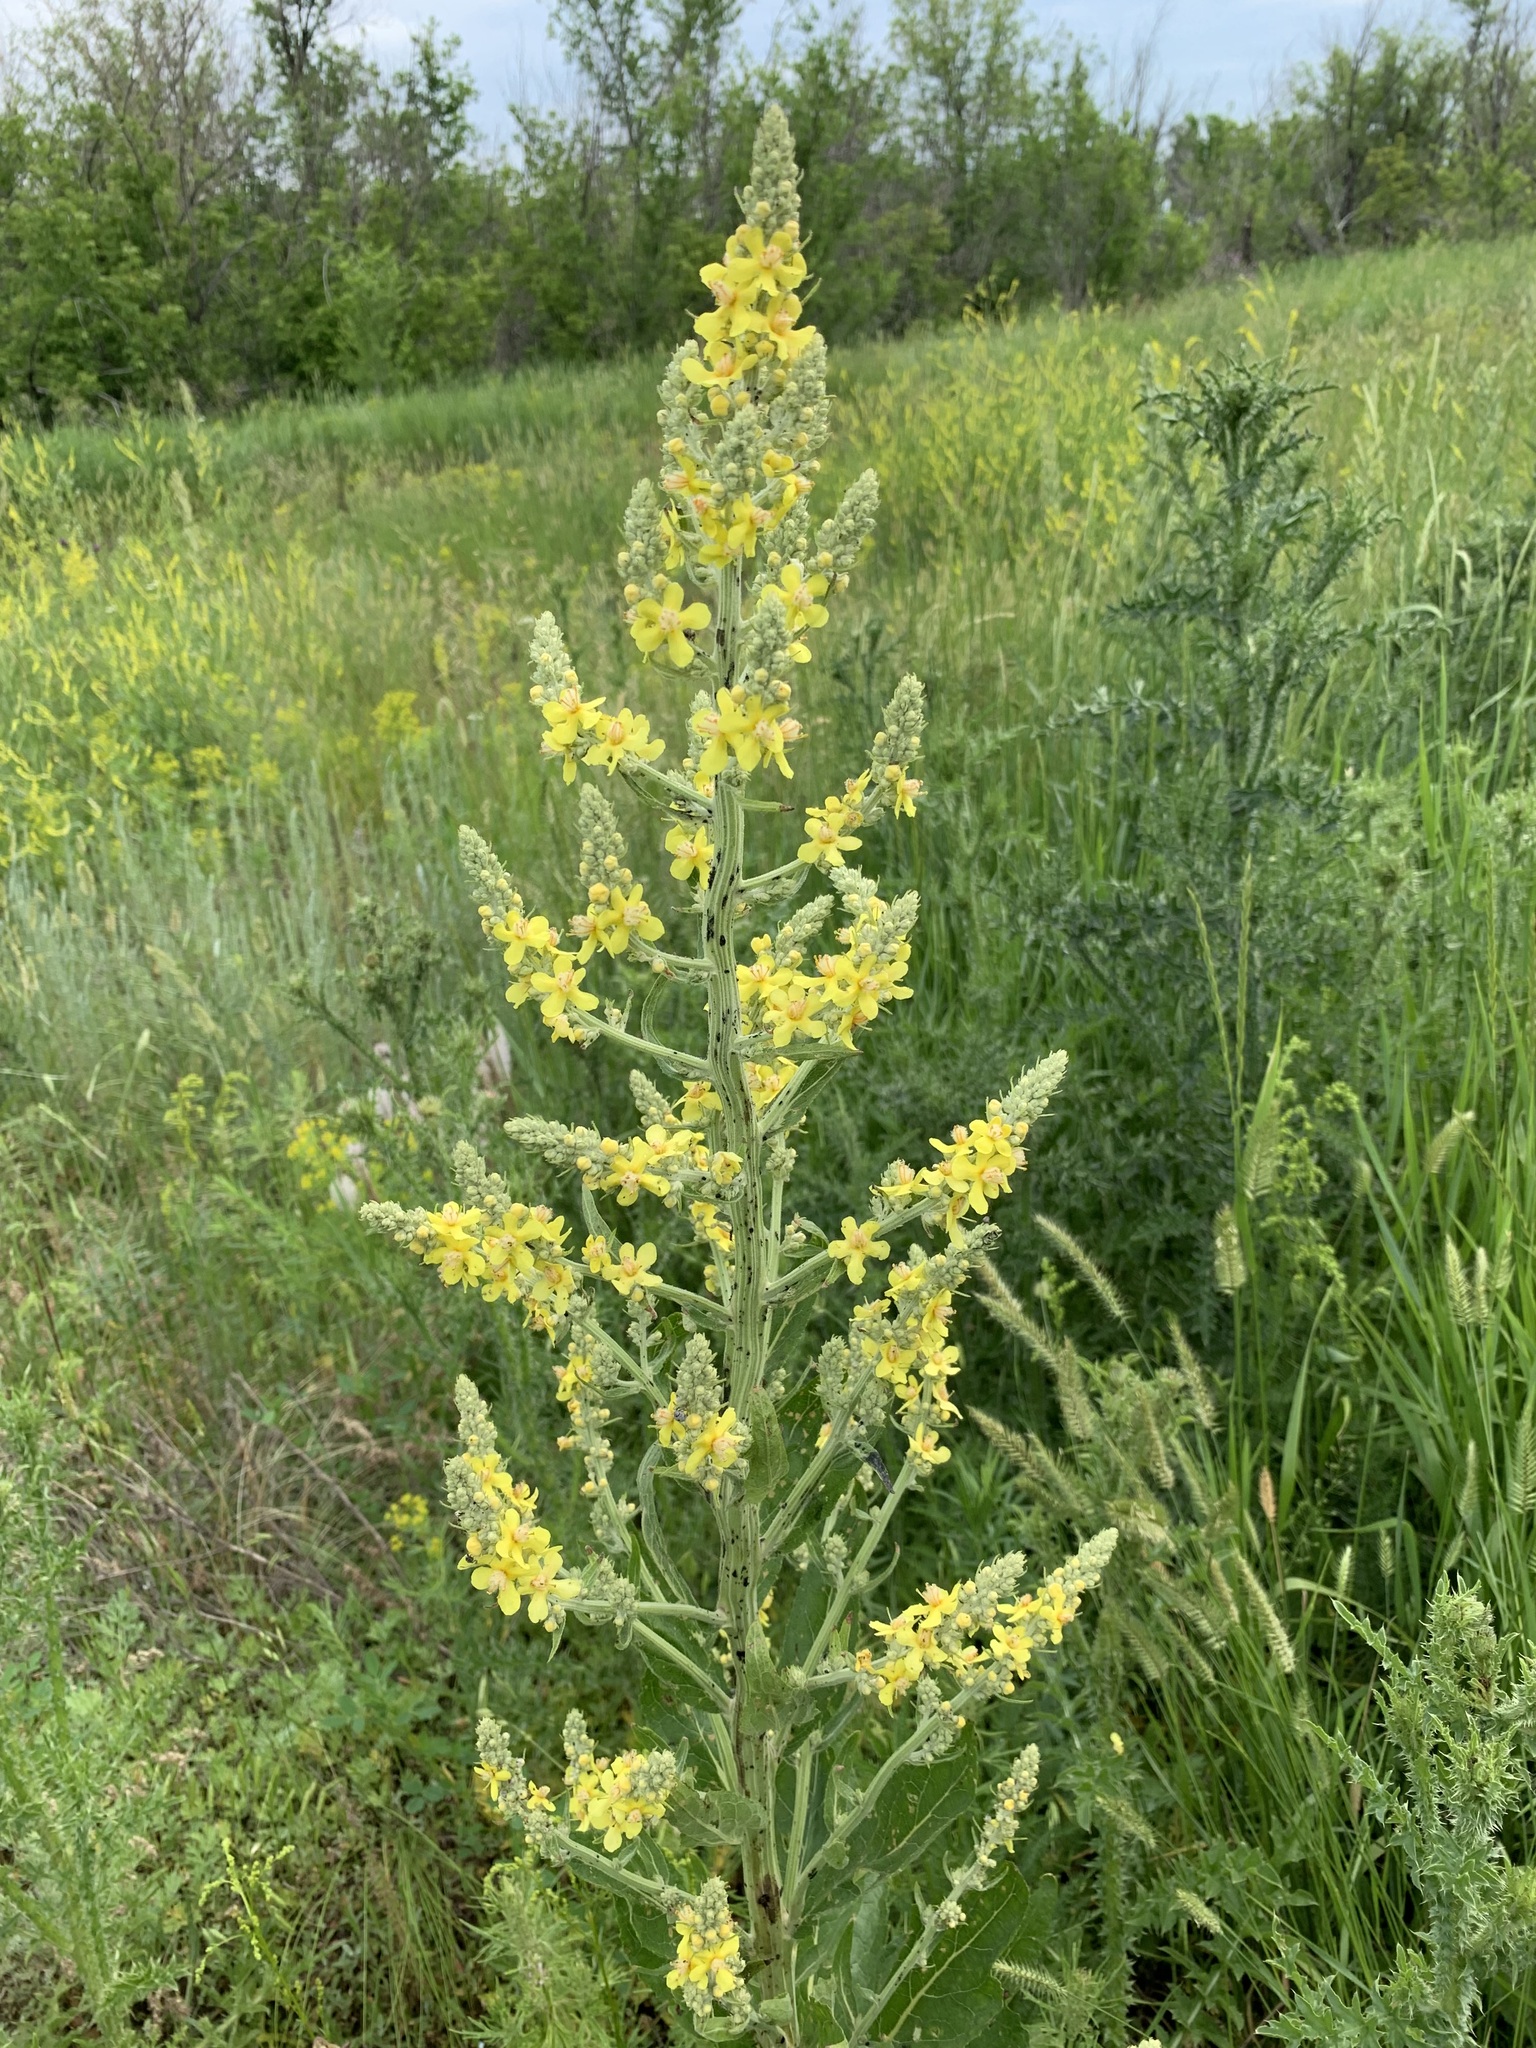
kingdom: Plantae
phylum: Tracheophyta
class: Magnoliopsida
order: Lamiales
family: Scrophulariaceae
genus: Verbascum
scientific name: Verbascum lychnitis
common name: White mullein
